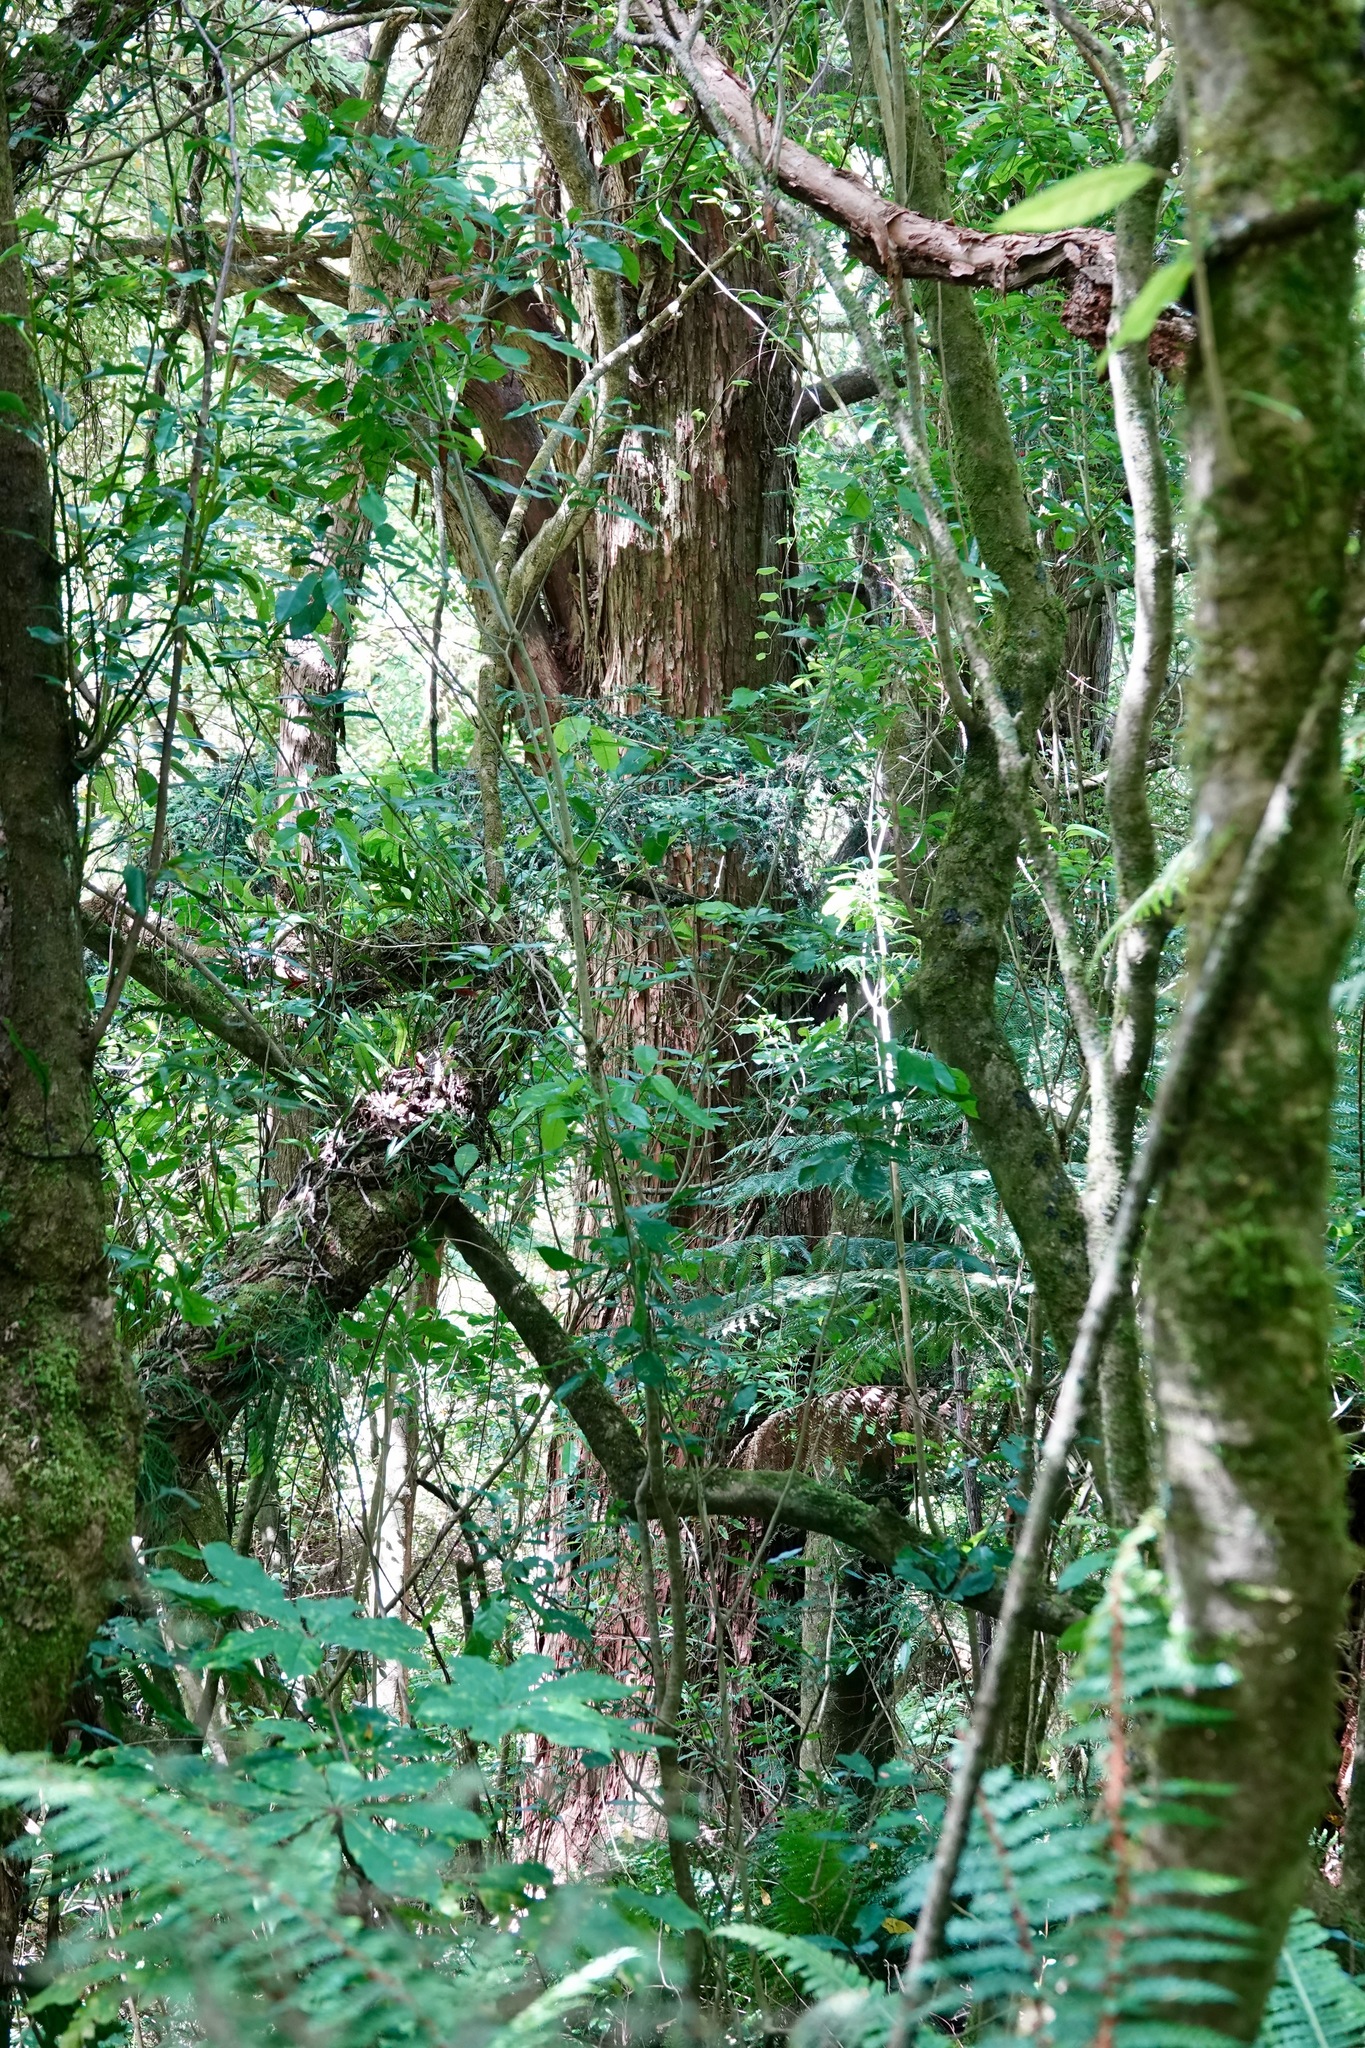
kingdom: Plantae
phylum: Tracheophyta
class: Pinopsida
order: Pinales
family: Podocarpaceae
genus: Podocarpus
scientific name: Podocarpus totara
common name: Totara
